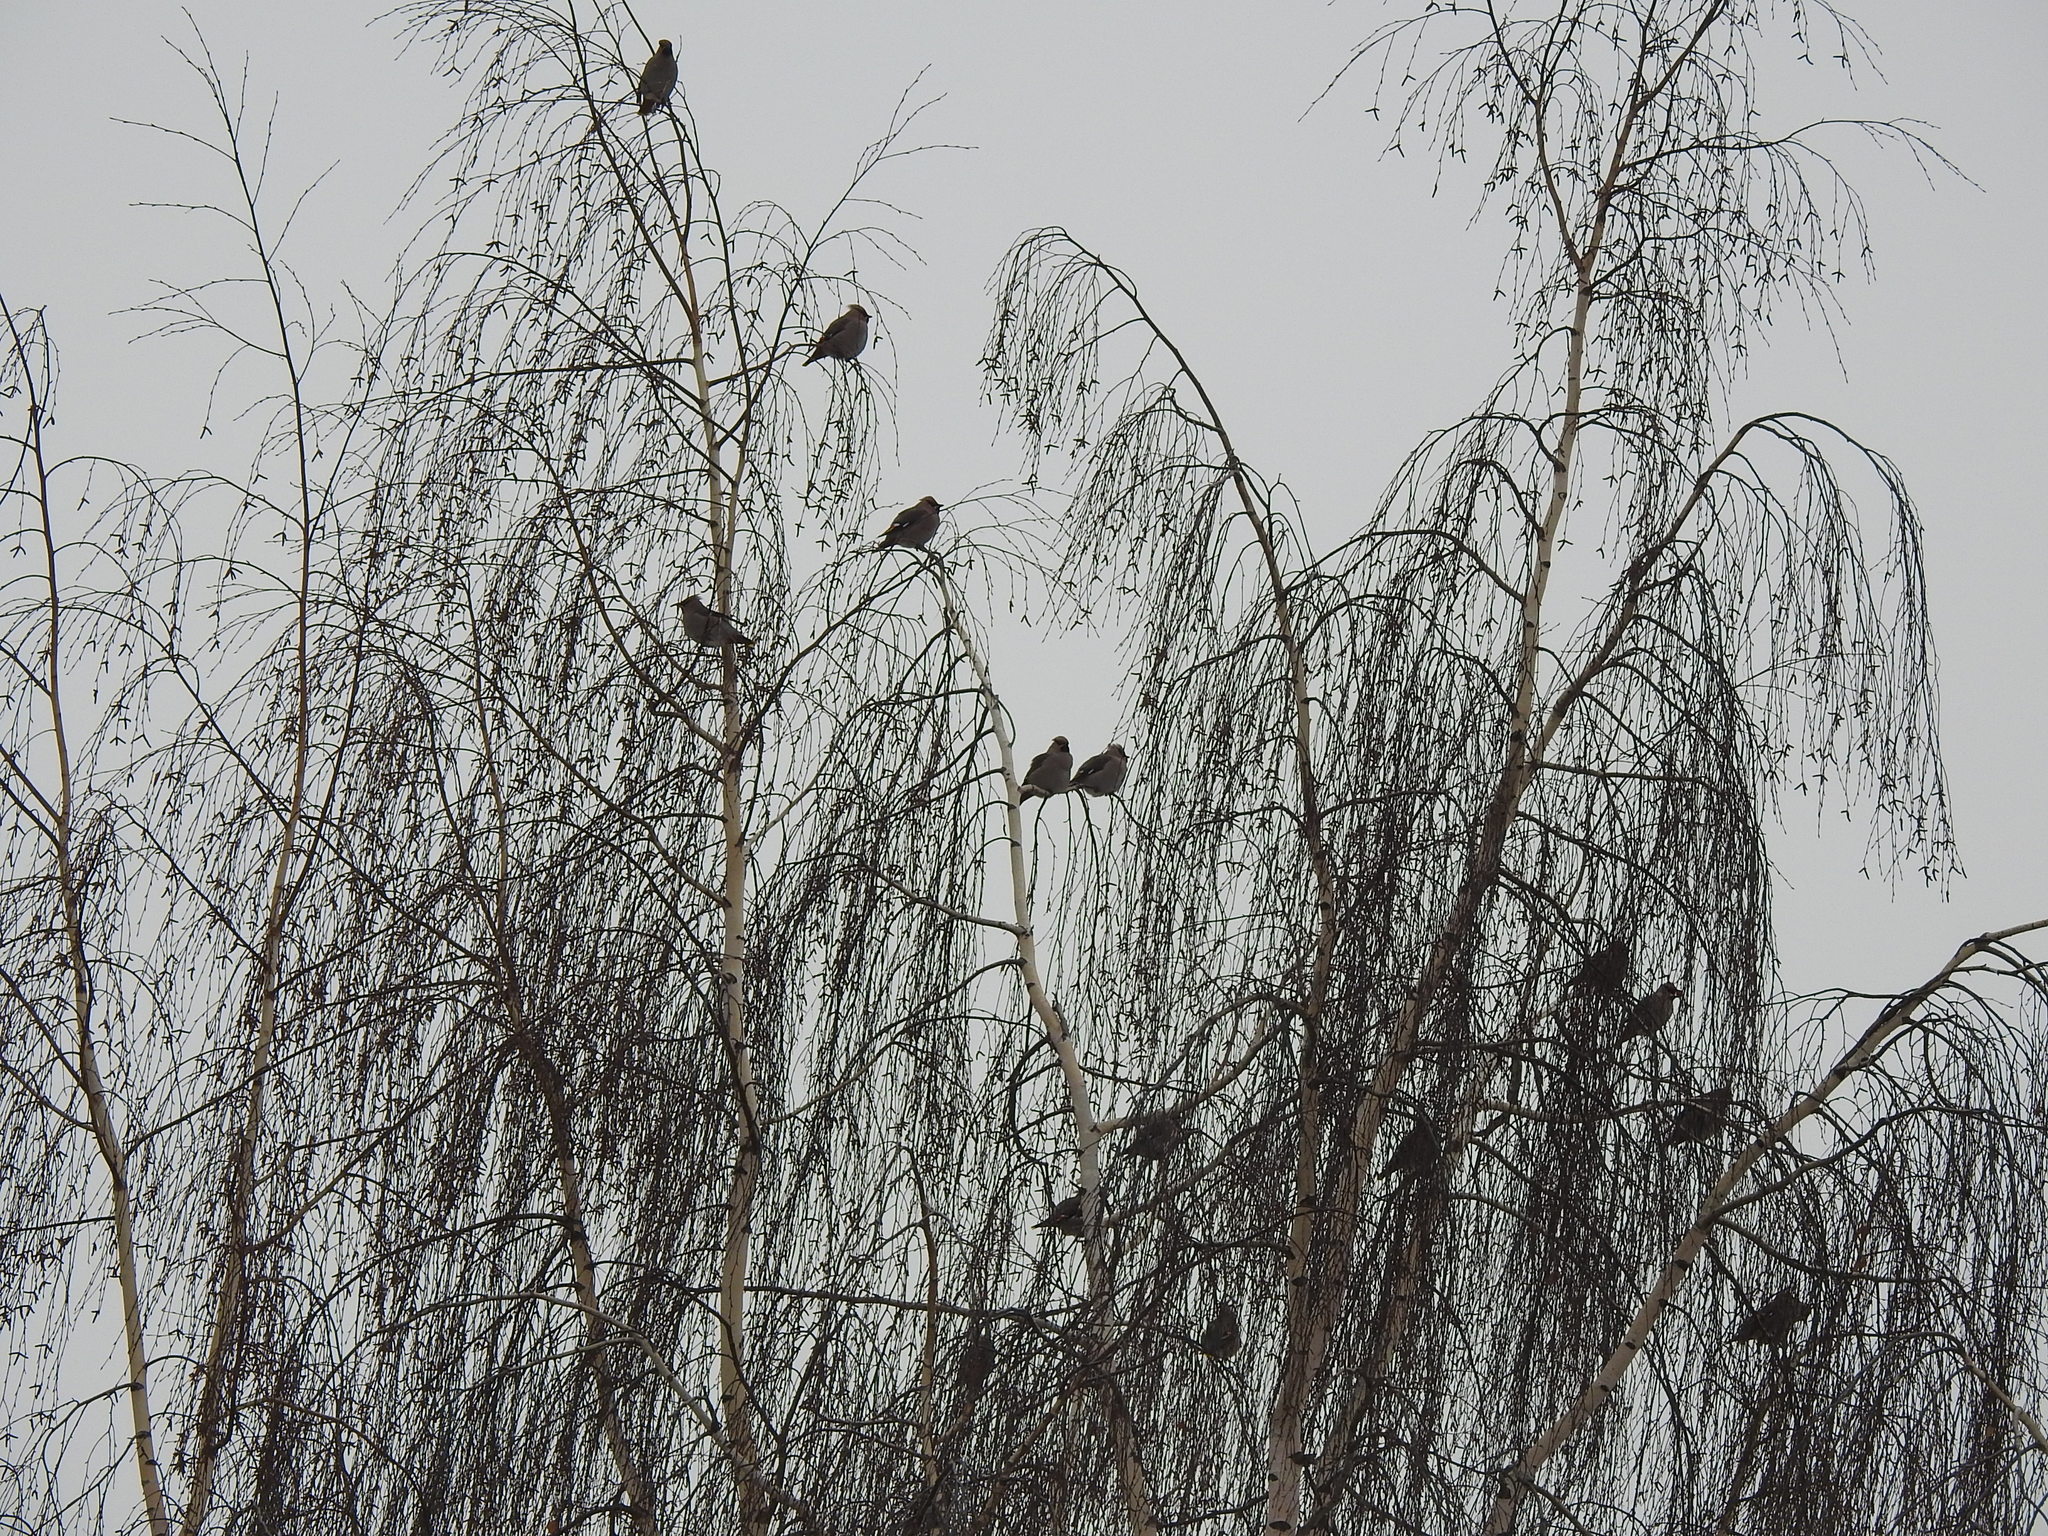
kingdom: Animalia
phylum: Chordata
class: Aves
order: Passeriformes
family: Bombycillidae
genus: Bombycilla
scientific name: Bombycilla garrulus
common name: Bohemian waxwing
